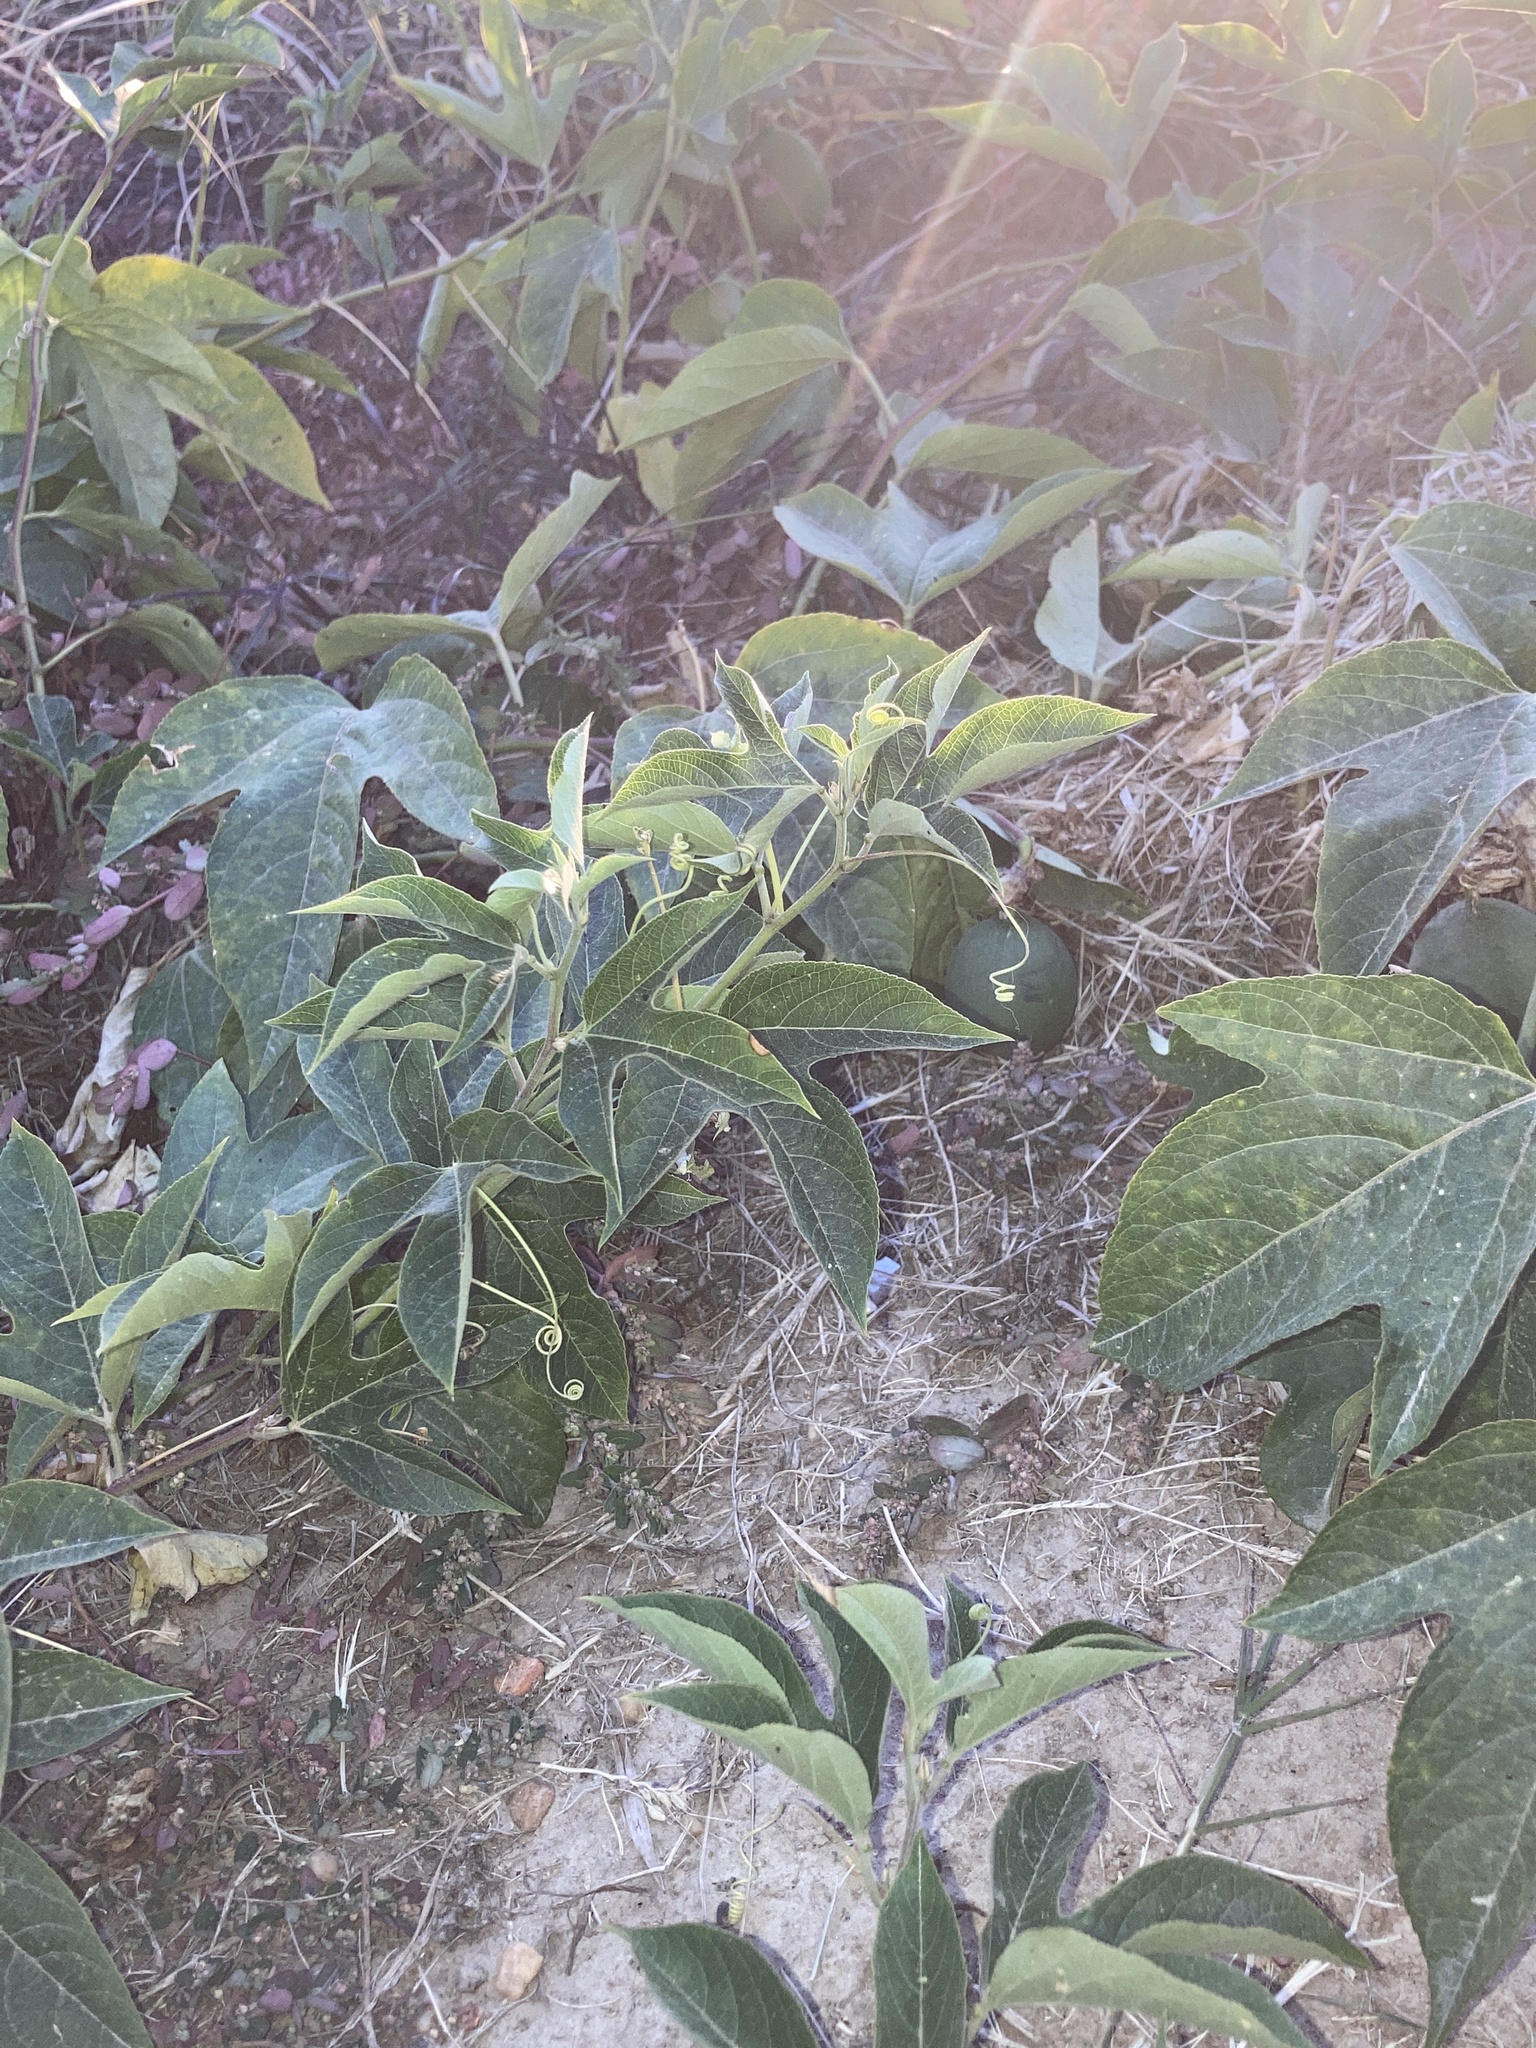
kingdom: Plantae
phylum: Tracheophyta
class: Magnoliopsida
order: Malpighiales
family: Passifloraceae
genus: Passiflora
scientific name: Passiflora incarnata
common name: Apricot-vine
